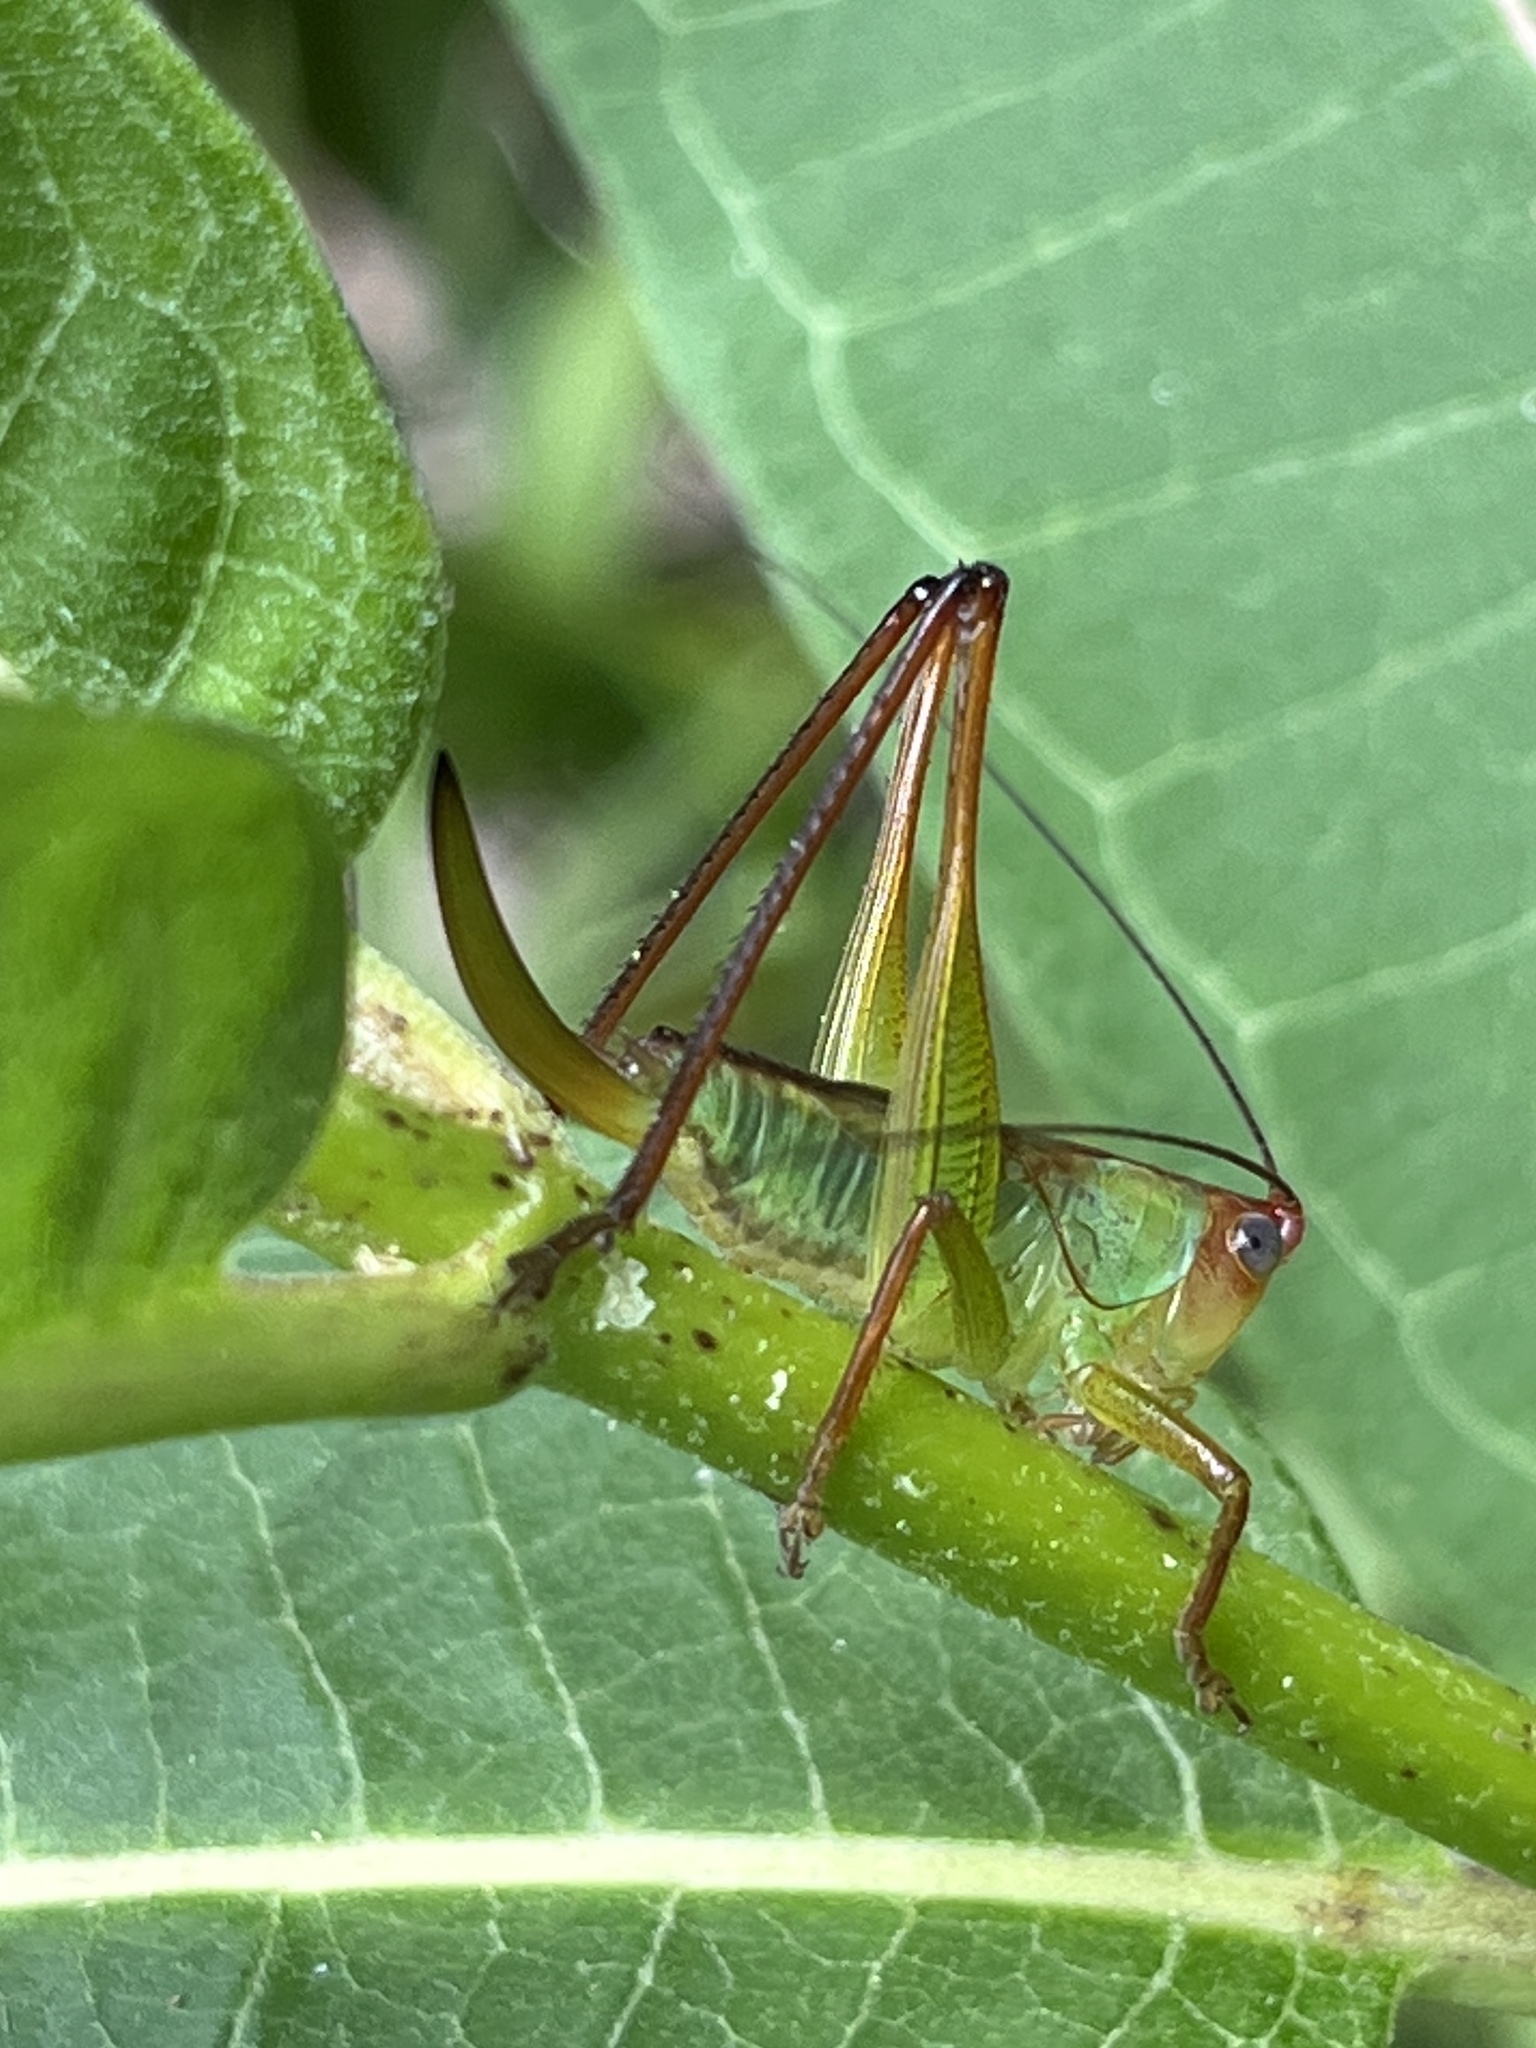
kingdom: Animalia
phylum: Arthropoda
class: Insecta
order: Orthoptera
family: Tettigoniidae
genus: Orchelimum
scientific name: Orchelimum pulchellum
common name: Handsome meadow katydid
